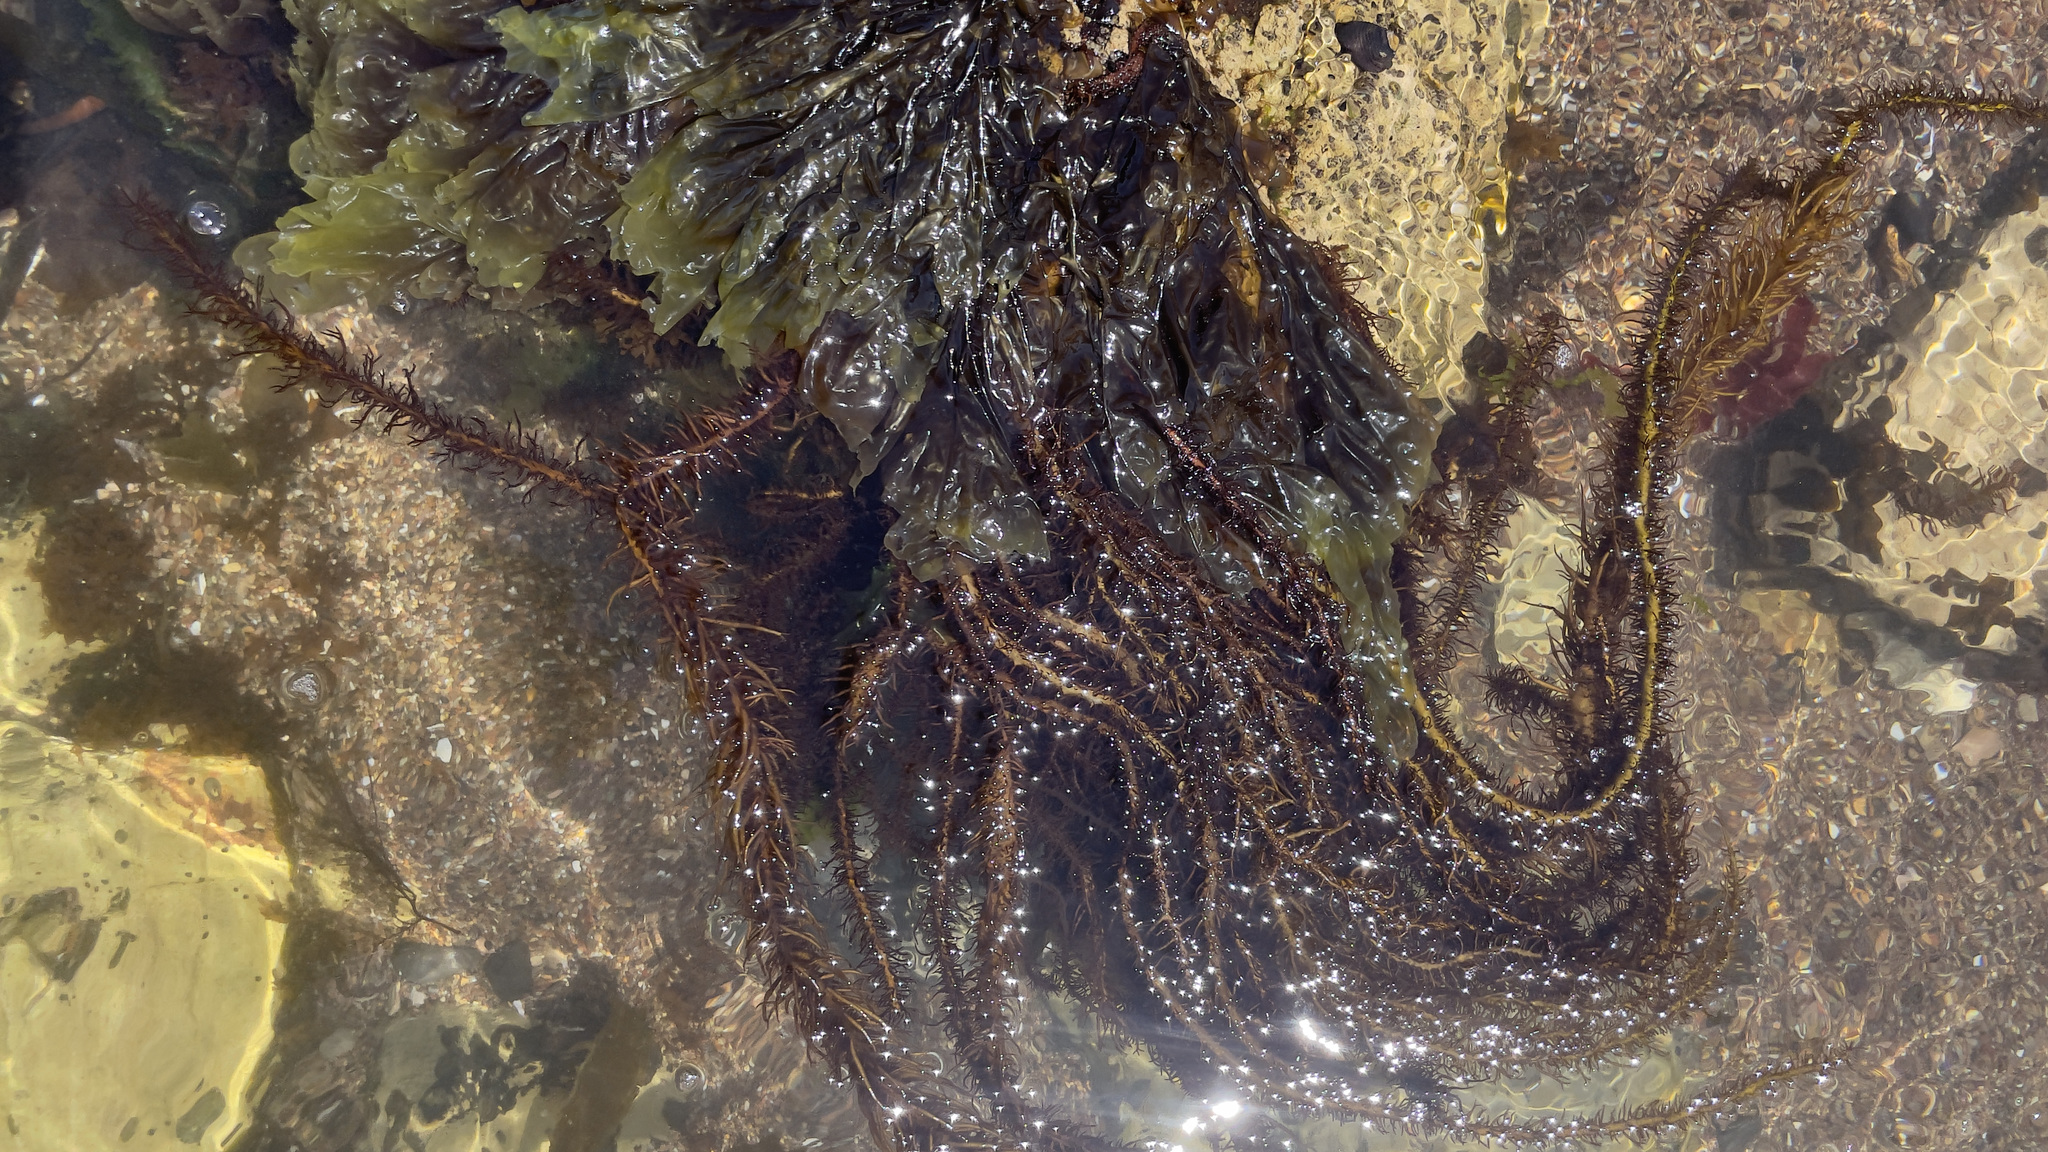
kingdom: Plantae
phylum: Rhodophyta
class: Florideophyceae
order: Nemaliales
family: Liagoraceae
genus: Cumagloia
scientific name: Cumagloia andersonii
